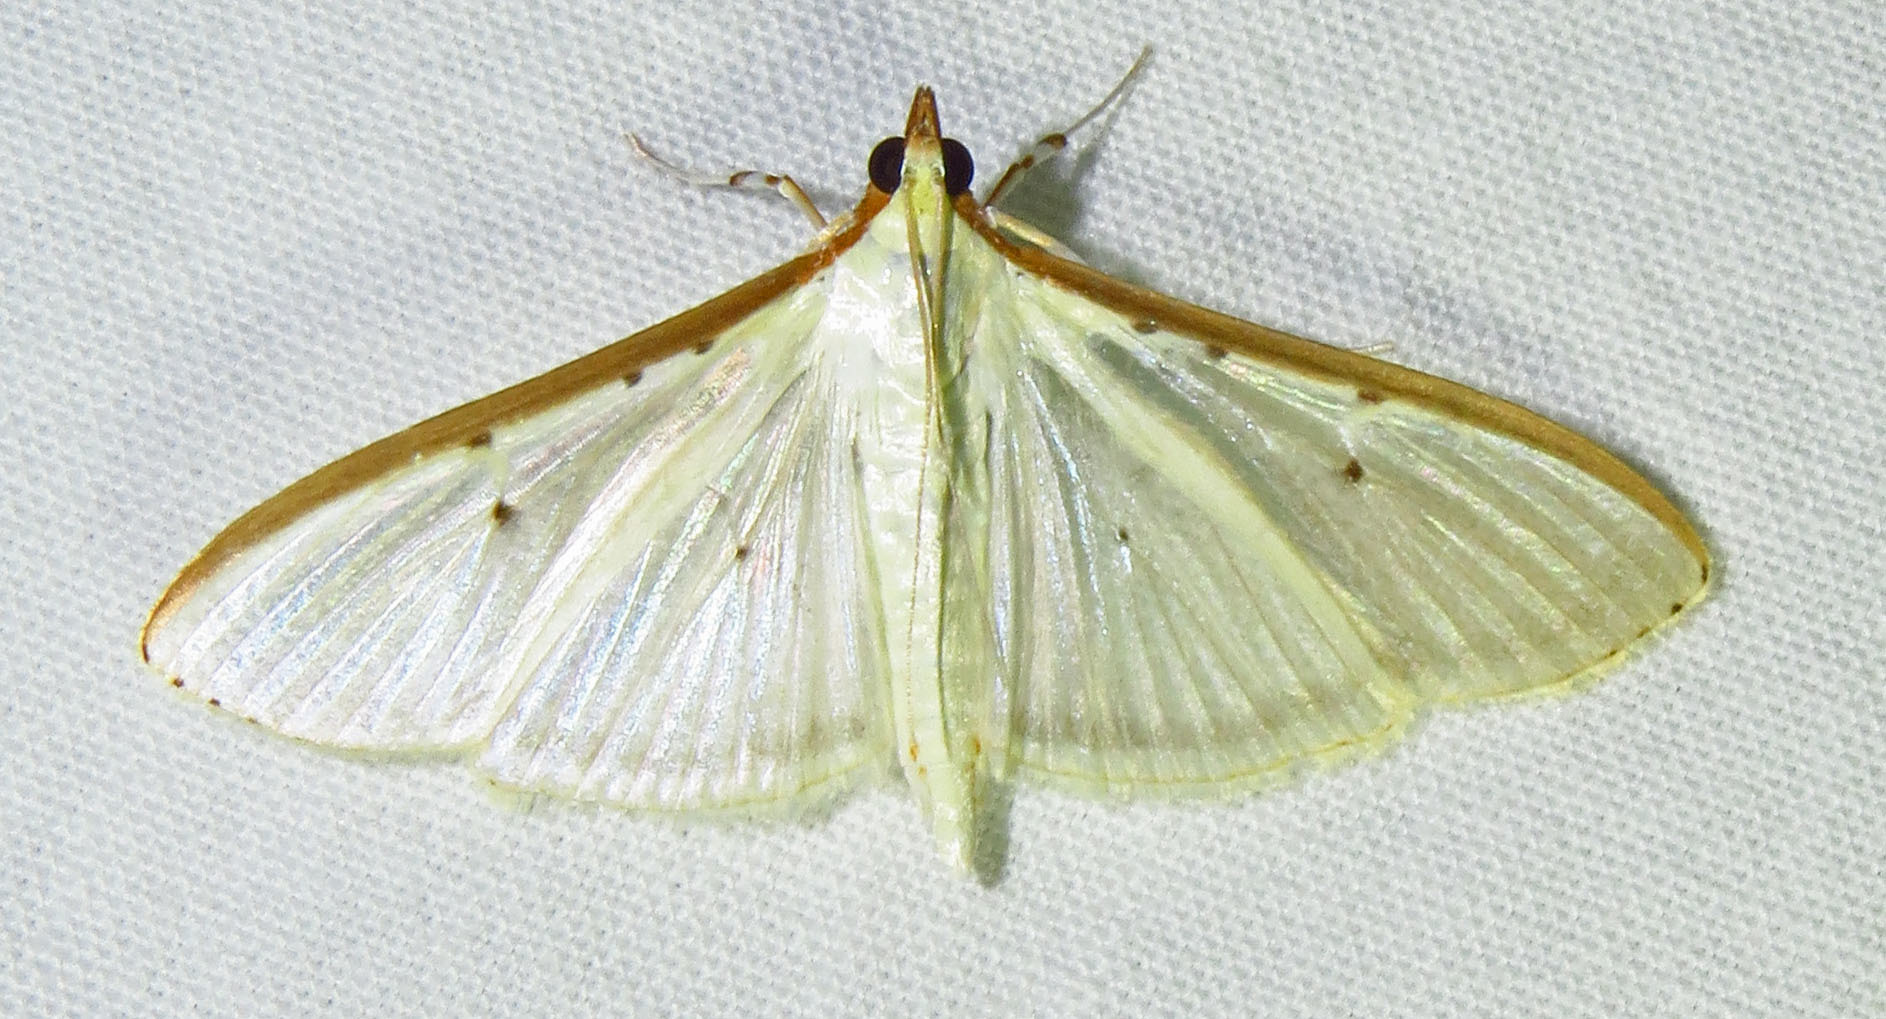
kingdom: Animalia
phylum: Arthropoda
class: Insecta
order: Lepidoptera
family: Crambidae
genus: Palpita
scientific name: Palpita quadristigmalis
